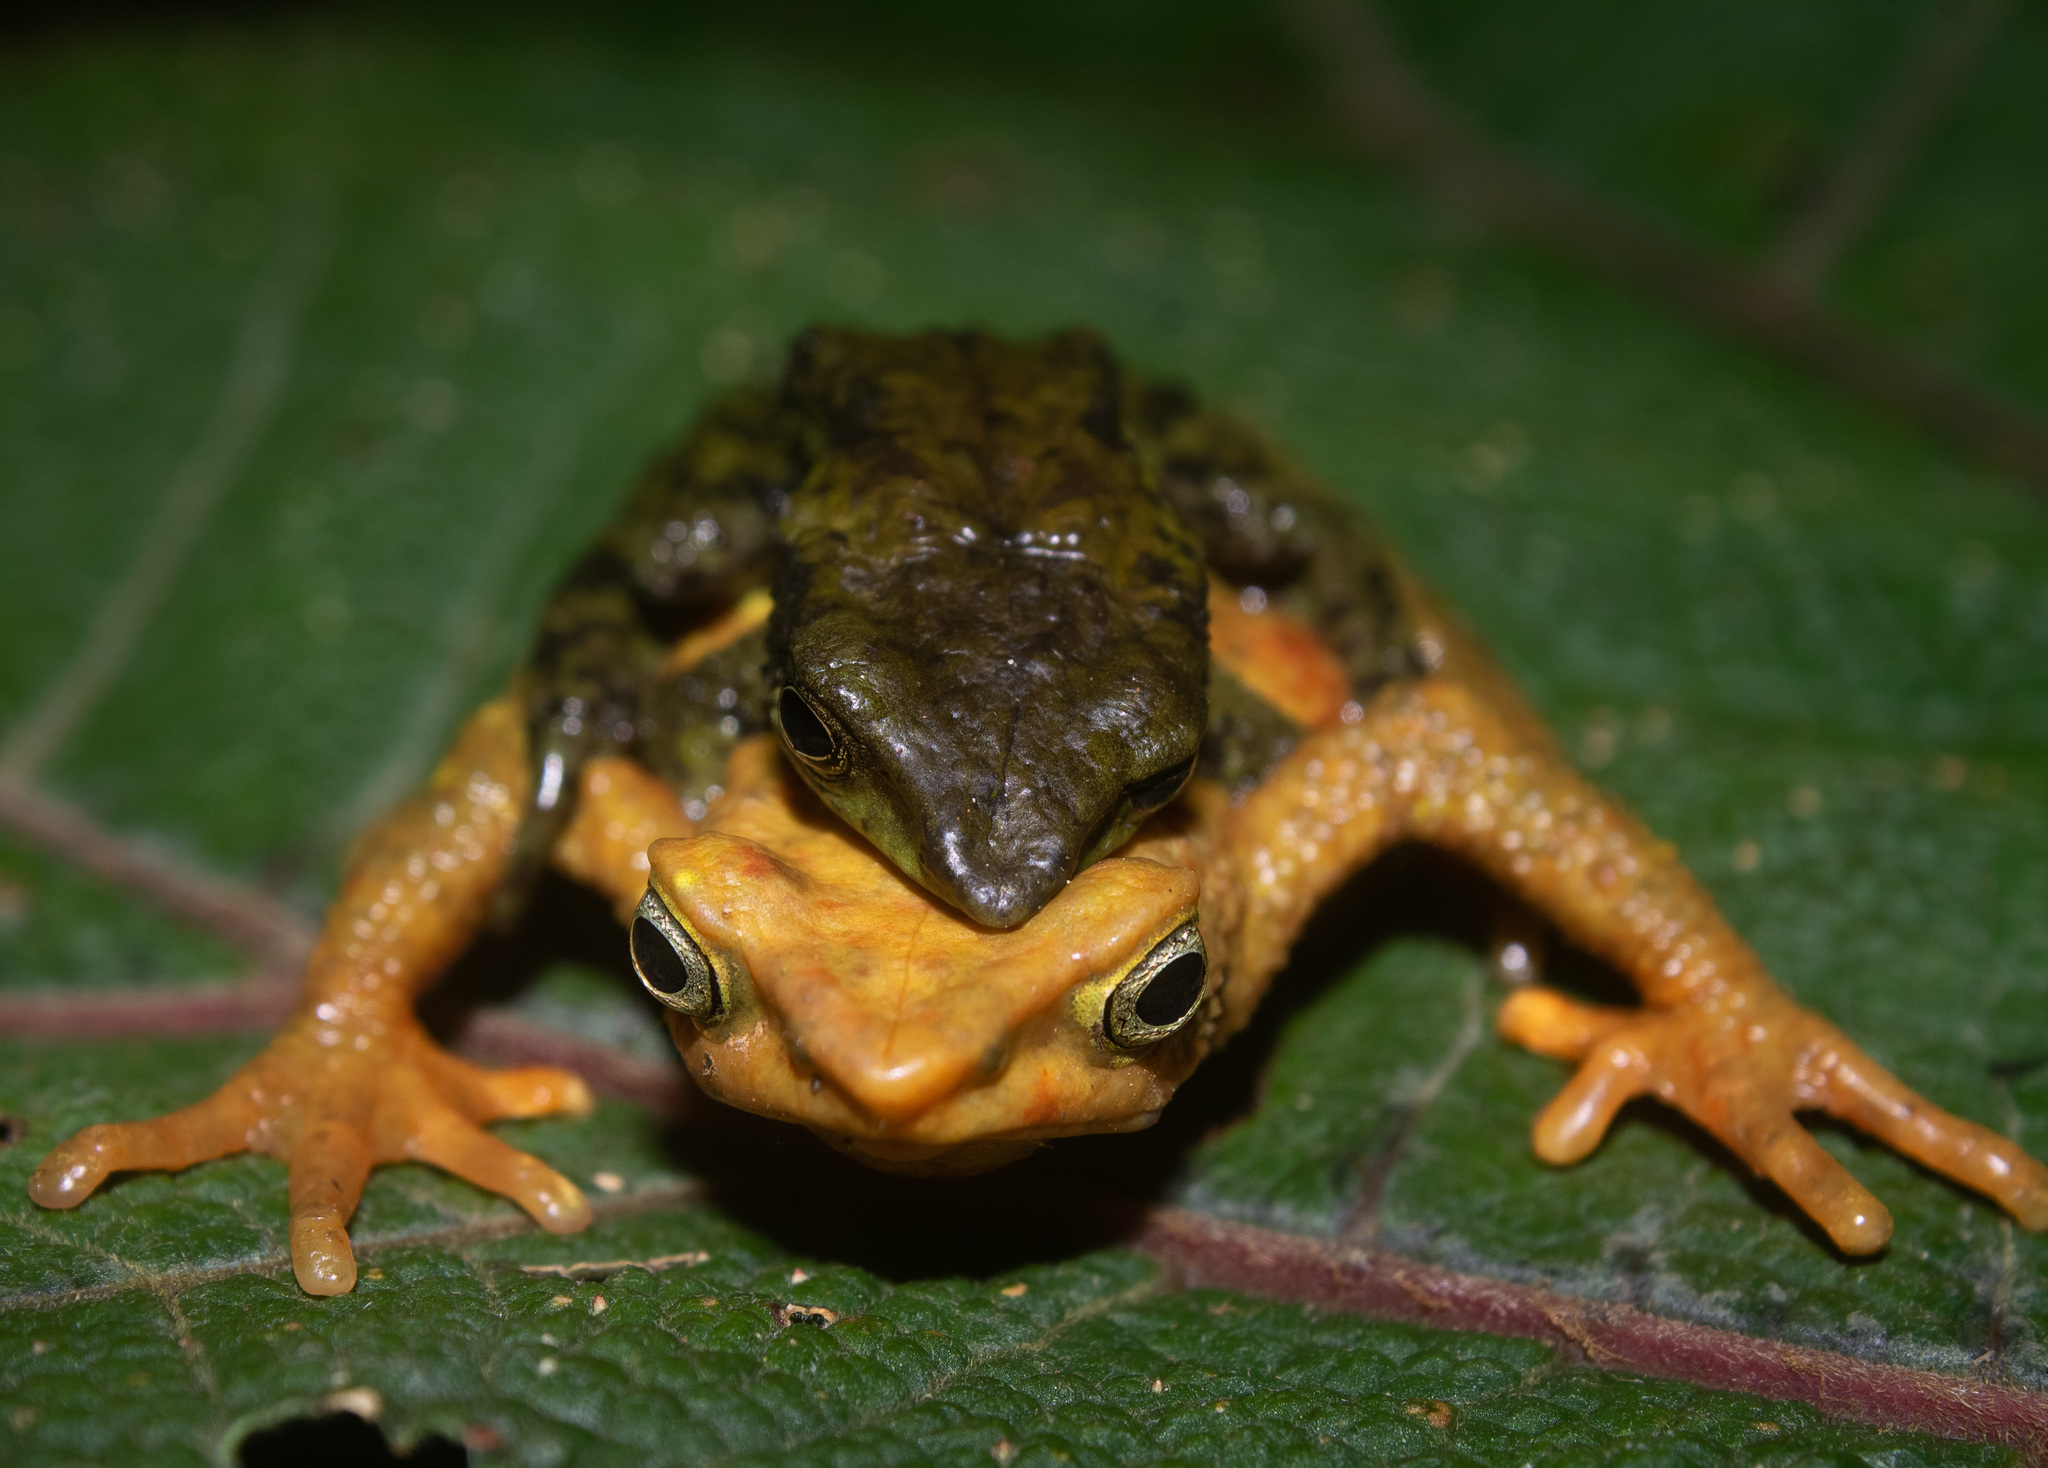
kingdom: Animalia
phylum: Chordata
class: Amphibia
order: Anura
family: Bufonidae
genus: Atelopus
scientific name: Atelopus laetissimus
